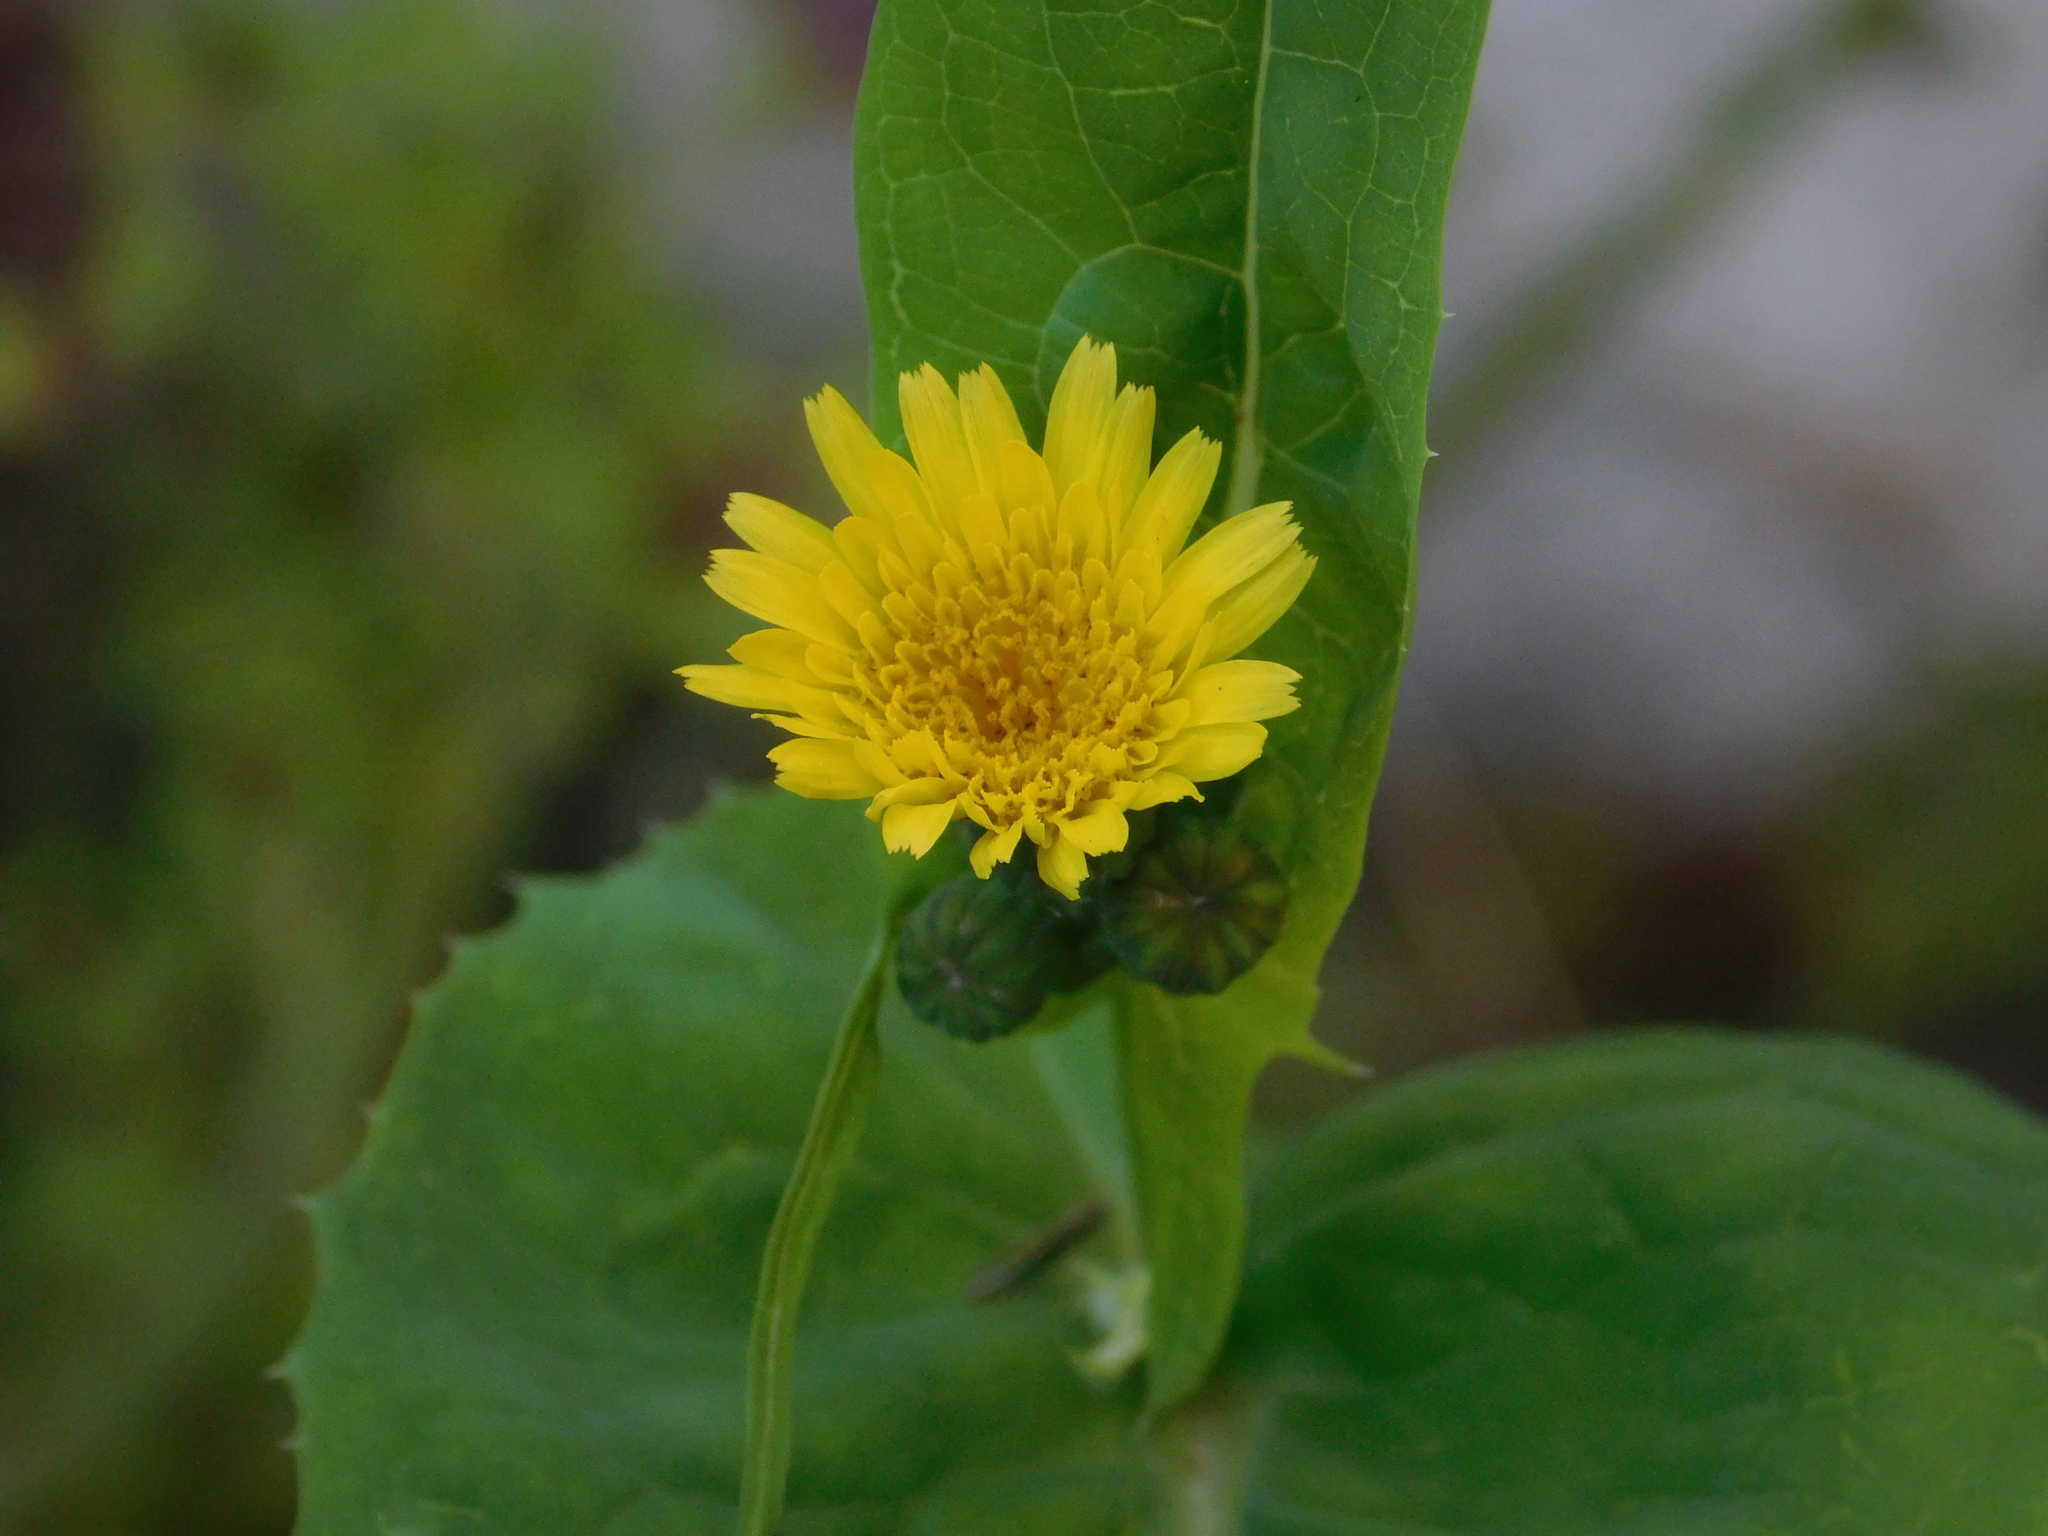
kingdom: Plantae
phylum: Tracheophyta
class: Magnoliopsida
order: Asterales
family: Asteraceae
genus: Sonchus
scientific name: Sonchus oleraceus
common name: Common sowthistle
